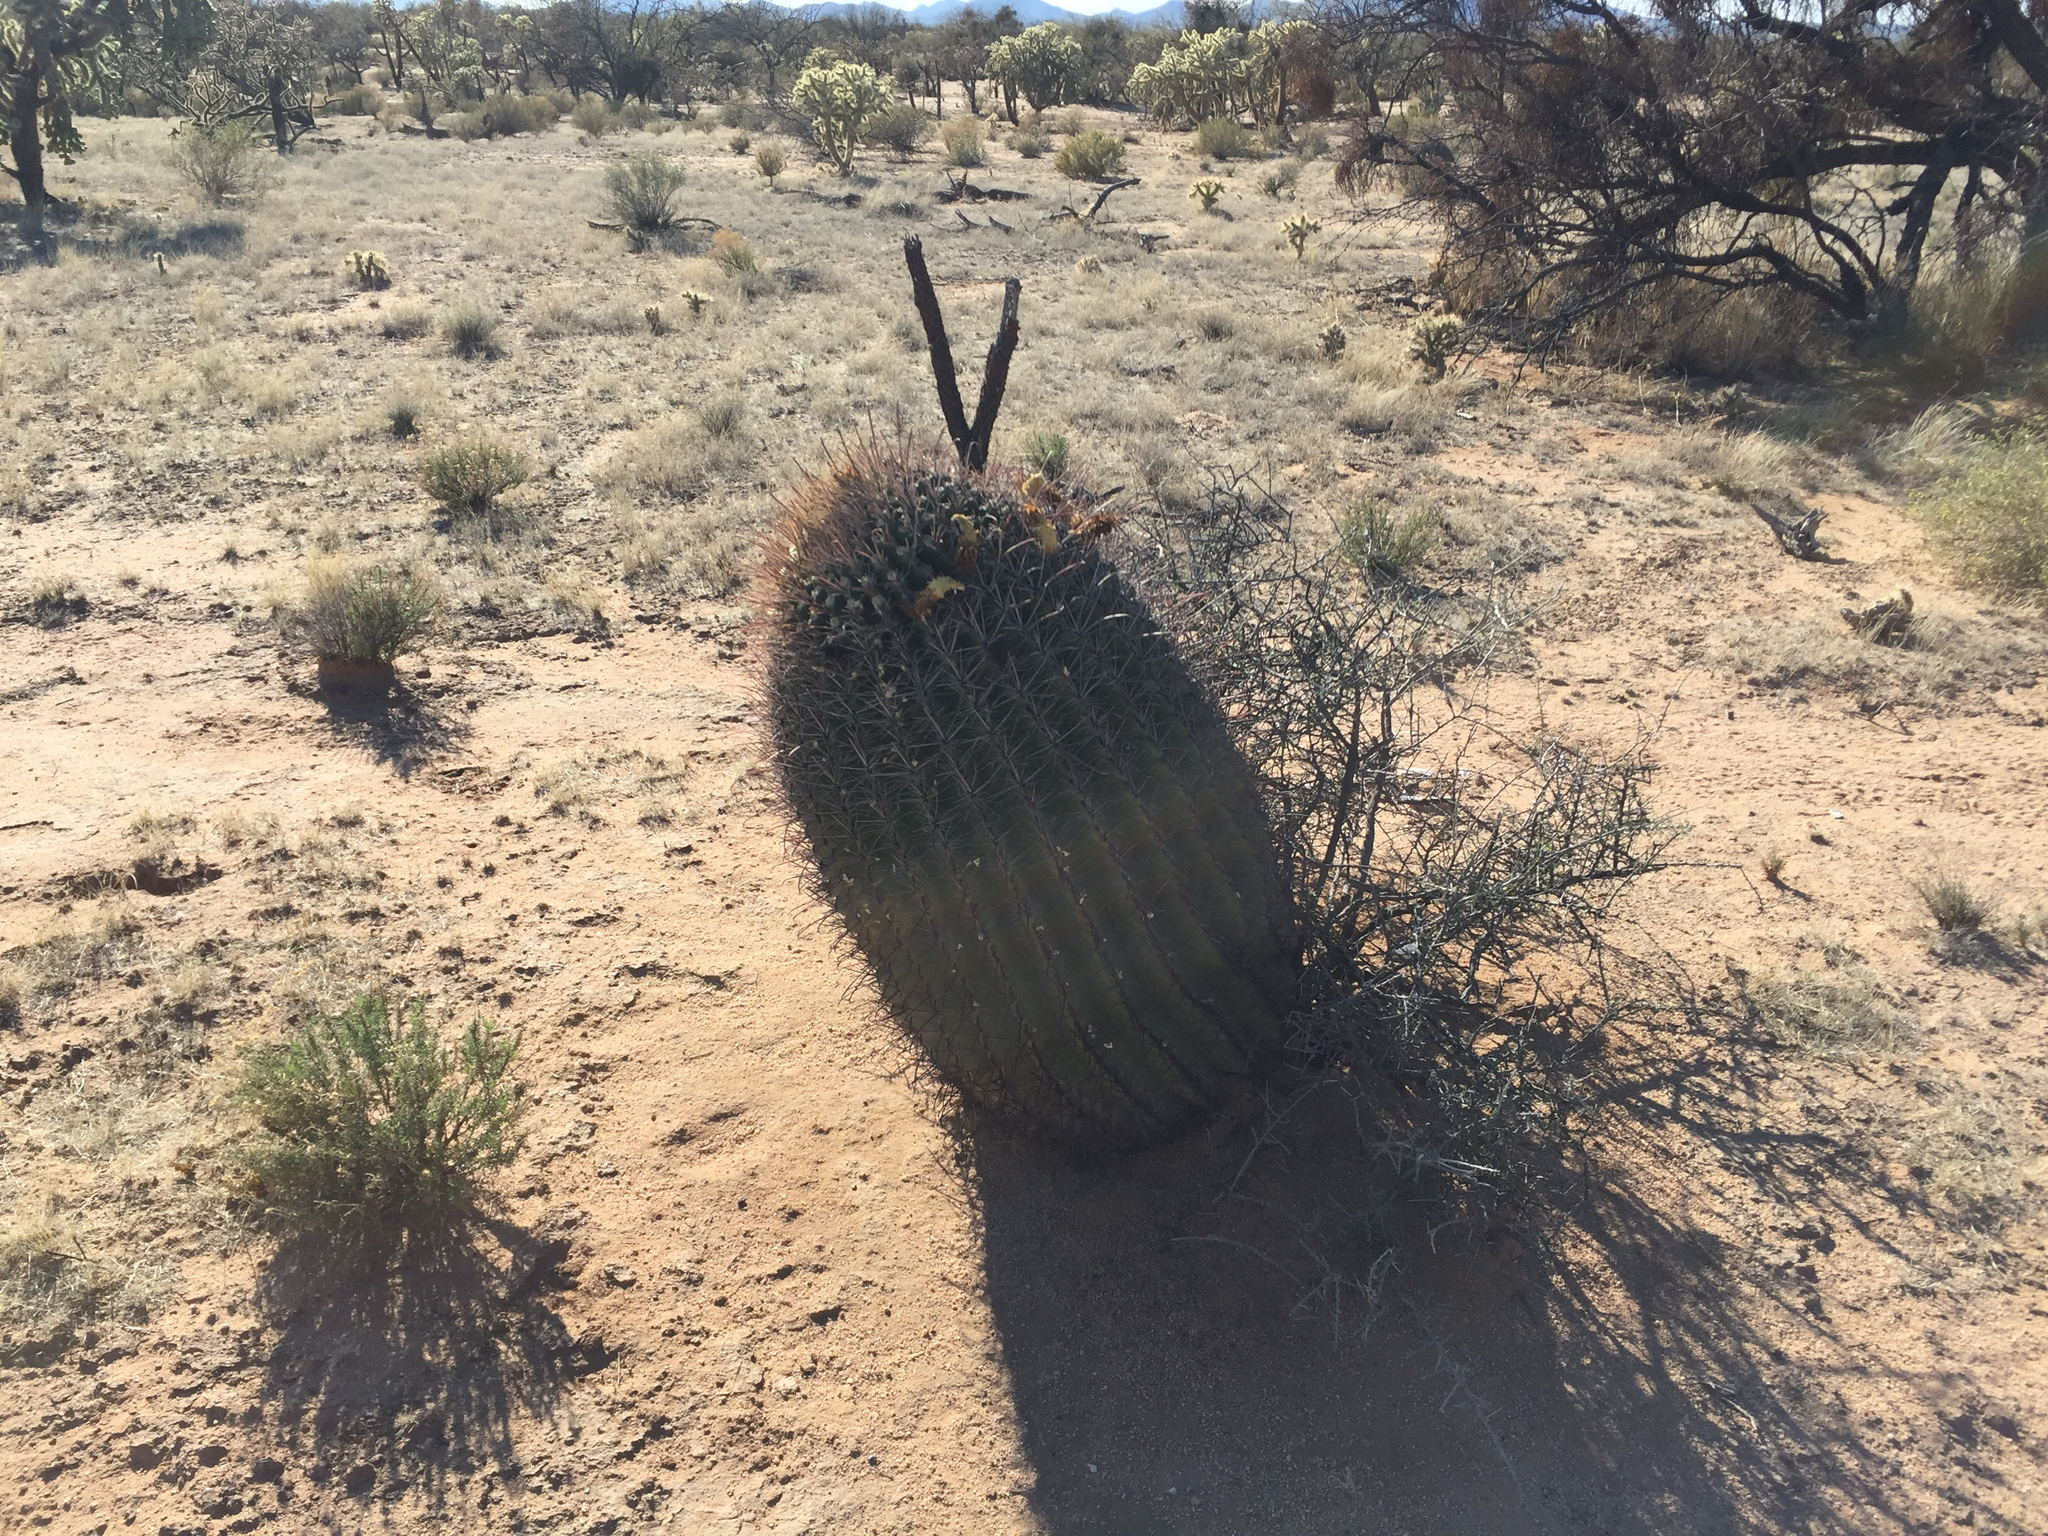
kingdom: Plantae
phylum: Tracheophyta
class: Magnoliopsida
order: Caryophyllales
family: Cactaceae
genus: Ferocactus
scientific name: Ferocactus wislizeni
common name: Candy barrel cactus
